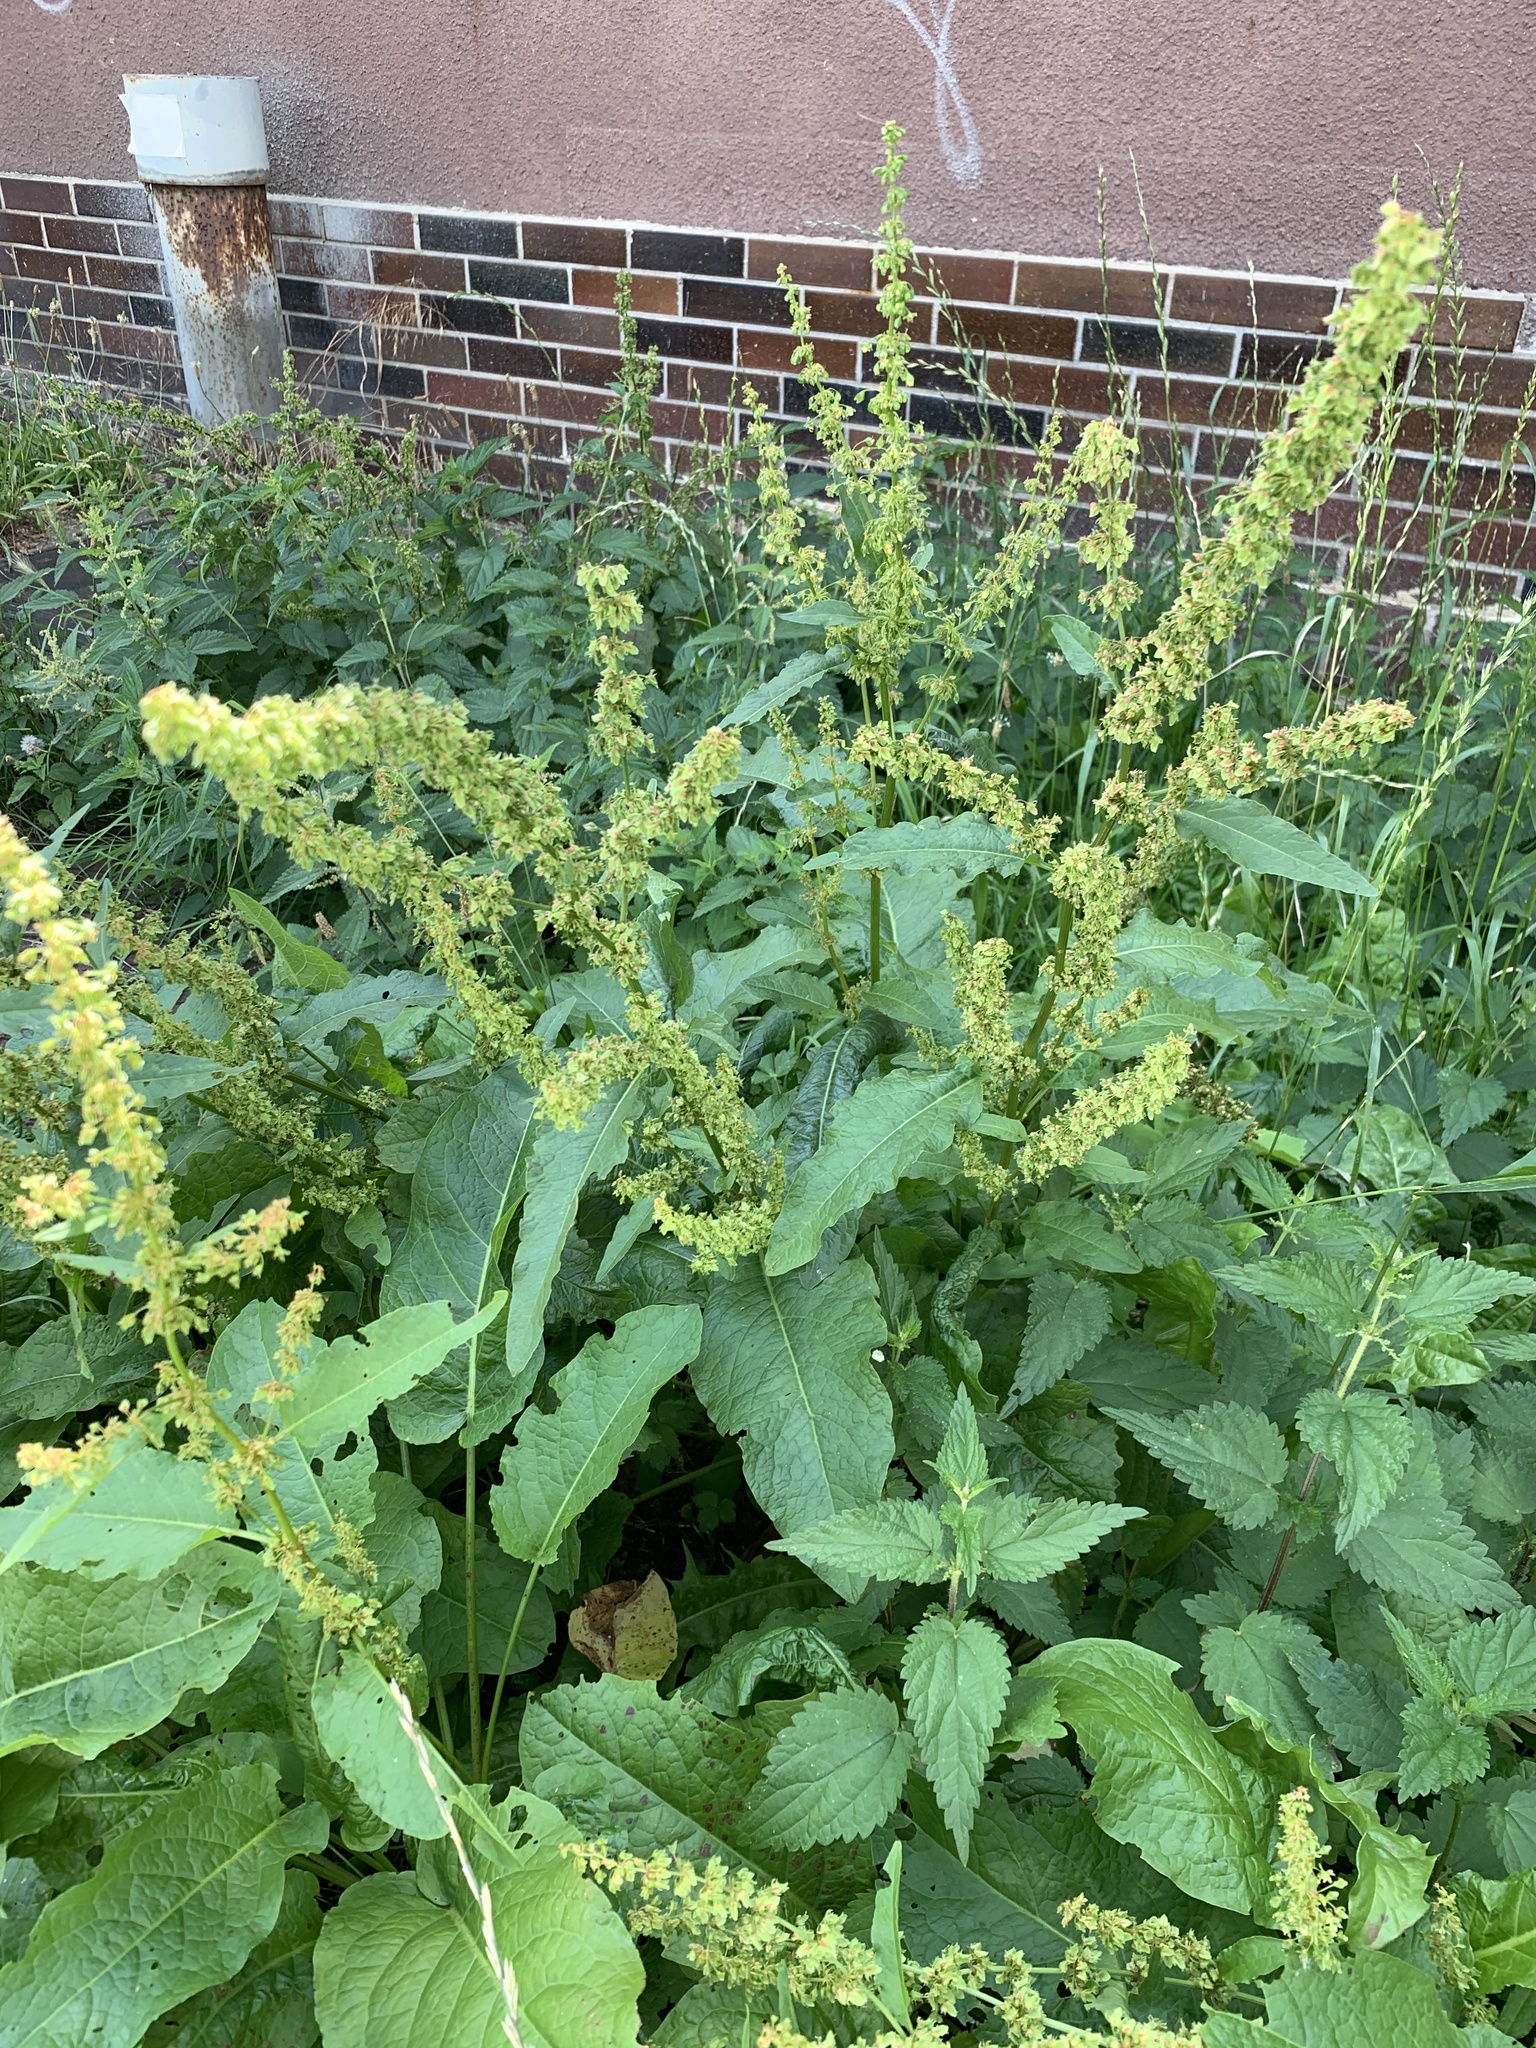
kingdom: Plantae
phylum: Tracheophyta
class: Magnoliopsida
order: Caryophyllales
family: Polygonaceae
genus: Rumex
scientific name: Rumex obtusifolius
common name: Bitter dock
